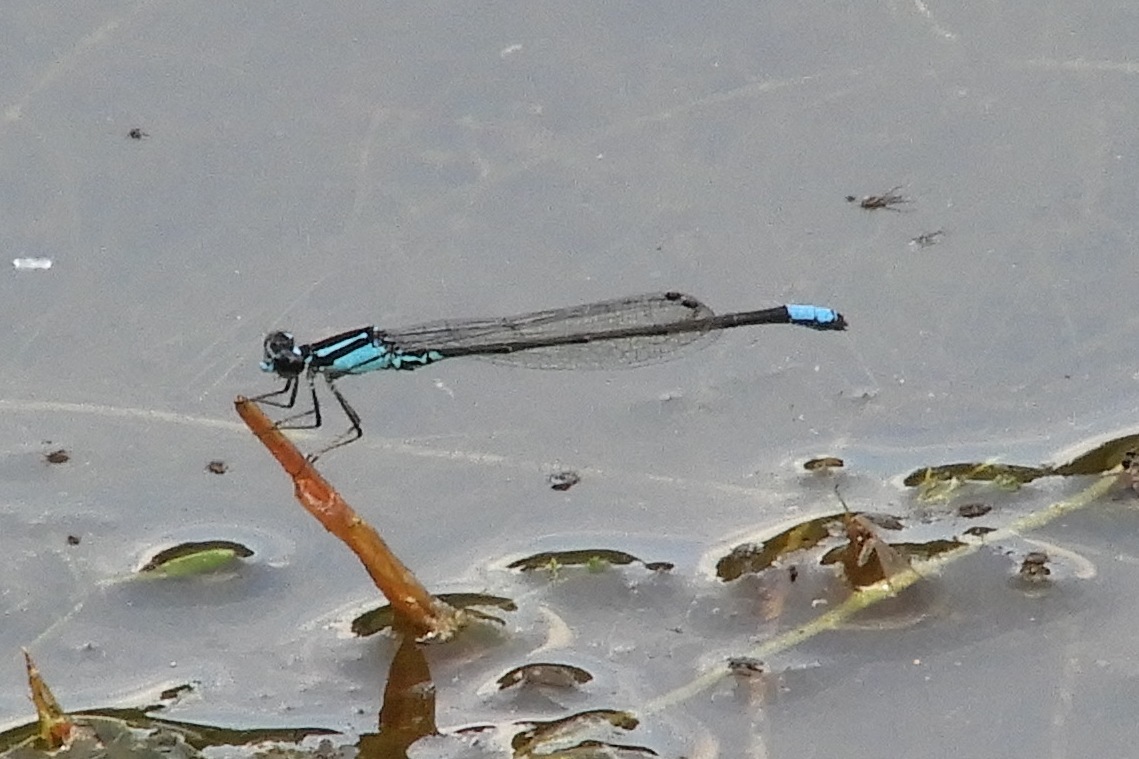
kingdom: Animalia
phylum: Arthropoda
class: Insecta
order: Odonata
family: Coenagrionidae
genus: Enallagma
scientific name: Enallagma geminatum
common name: Skimming bluet
